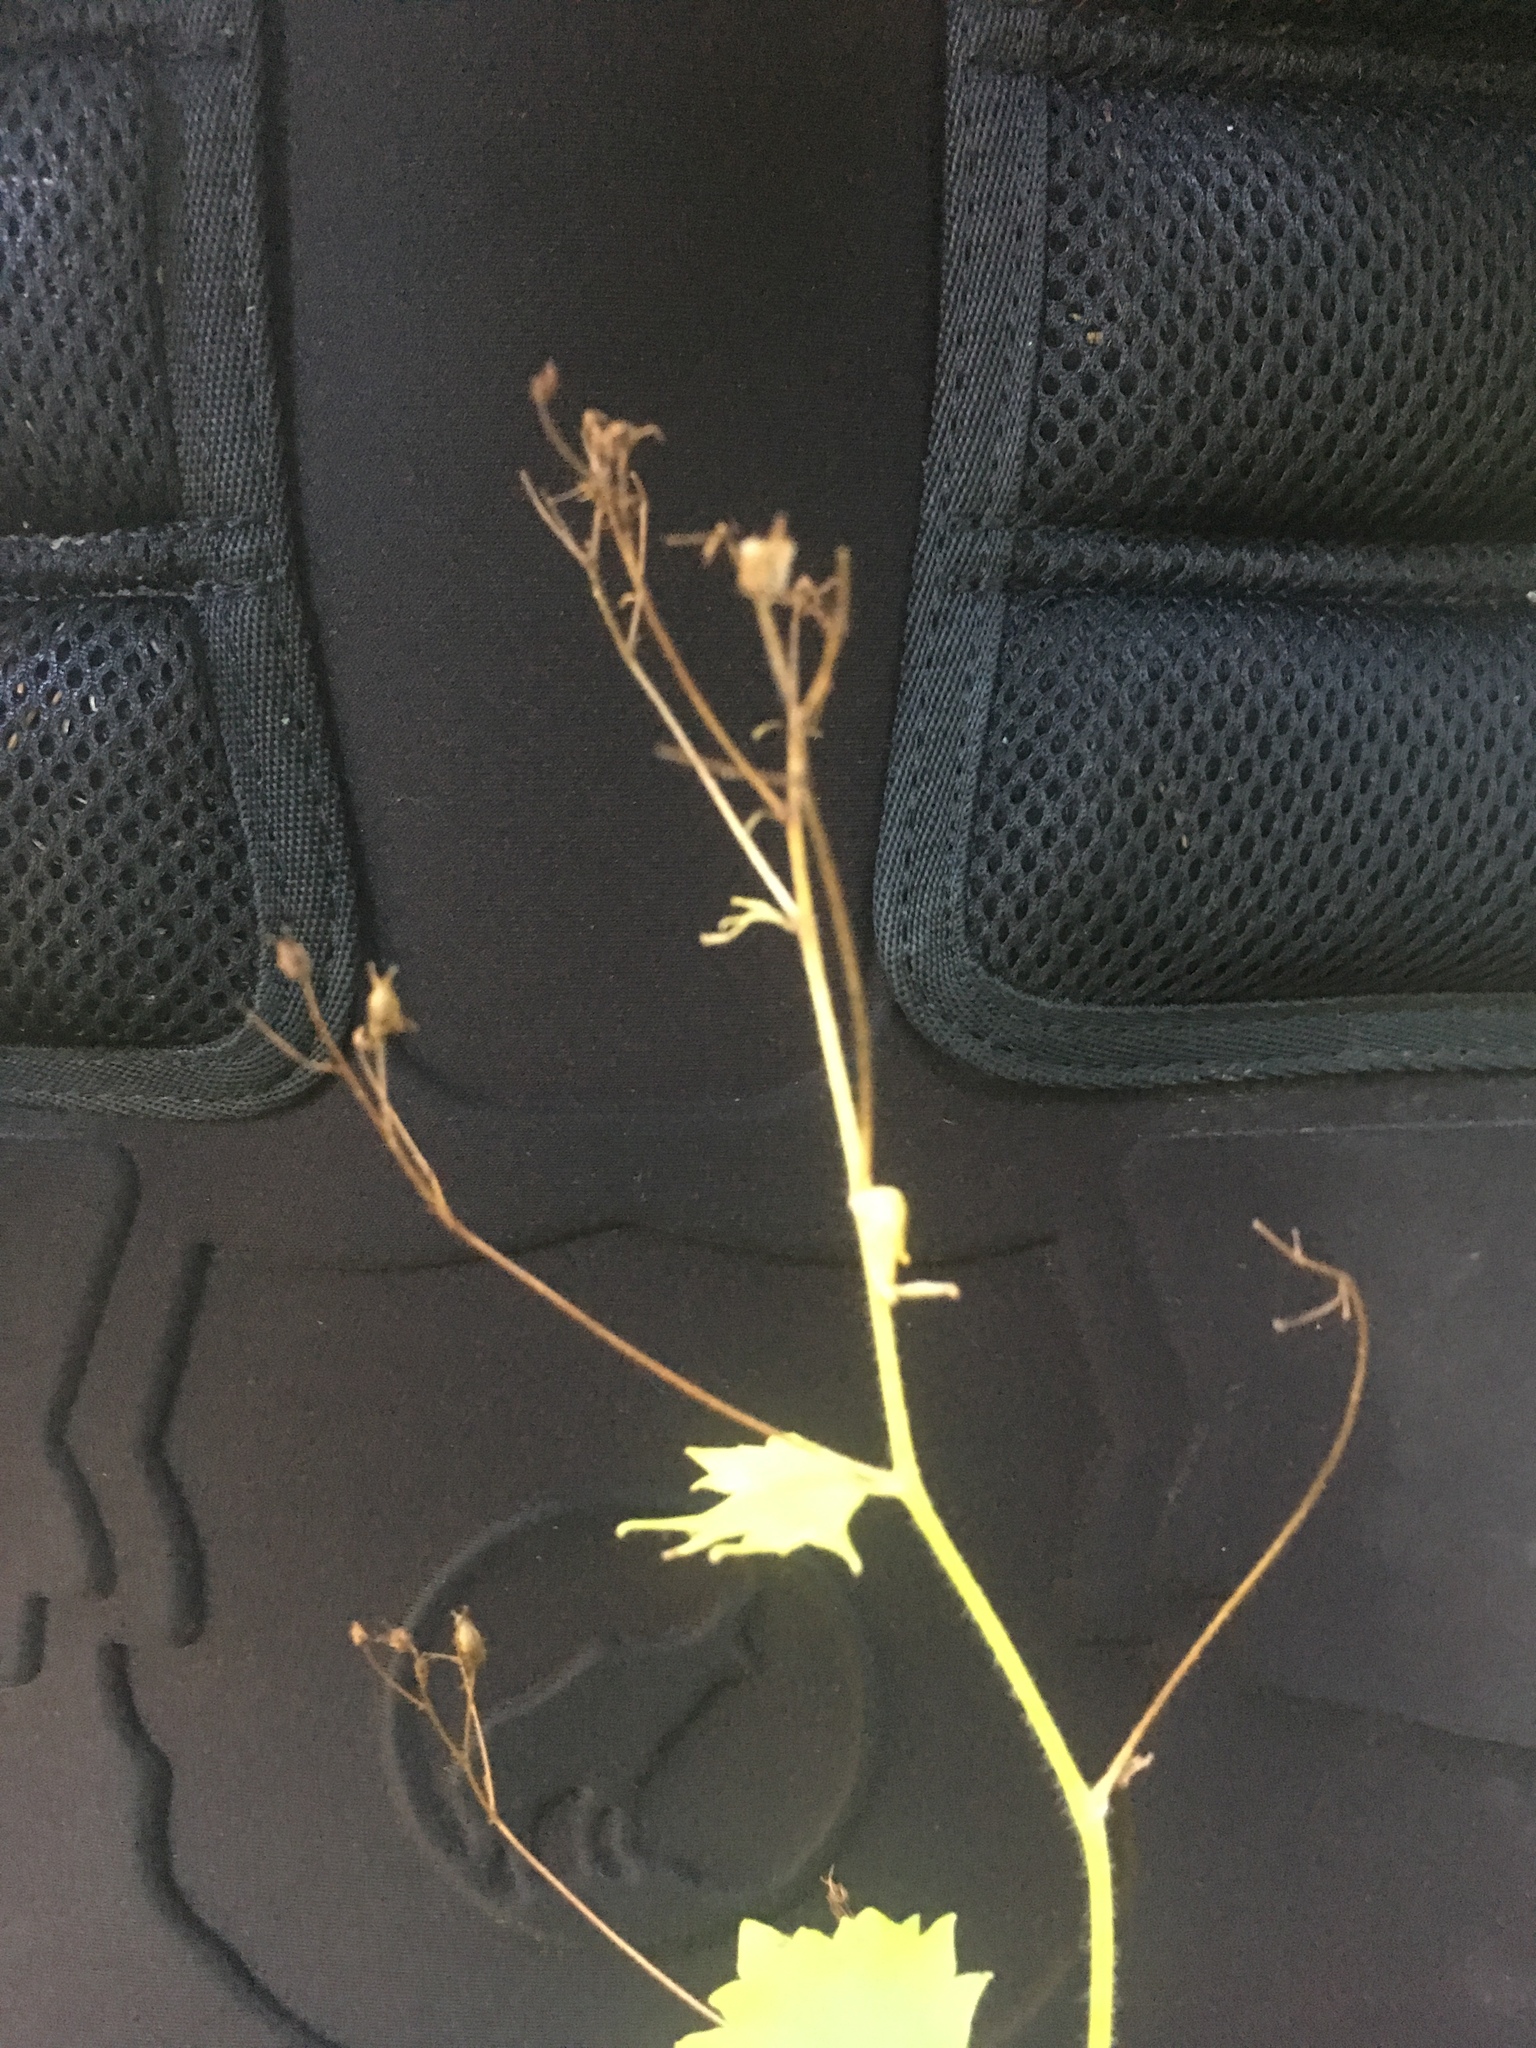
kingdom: Plantae
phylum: Tracheophyta
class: Magnoliopsida
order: Saxifragales
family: Saxifragaceae
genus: Saxifraga
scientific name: Saxifraga rotundifolia
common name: Round-leaved saxifrage
